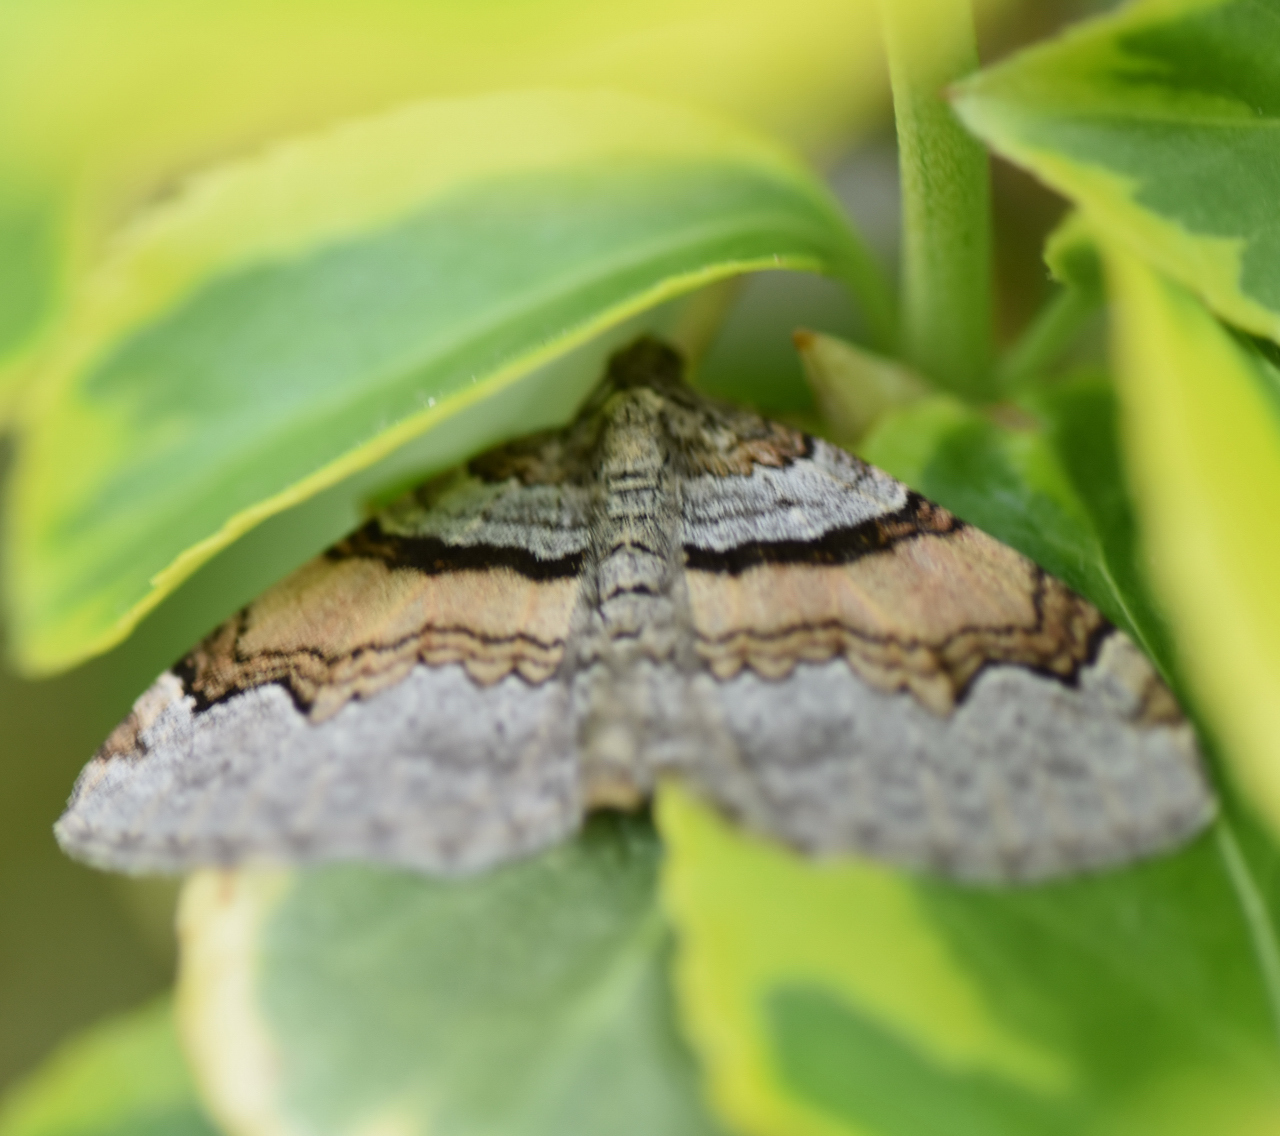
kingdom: Animalia
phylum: Arthropoda
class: Insecta
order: Lepidoptera
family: Geometridae
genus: Xanthorhoe
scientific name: Xanthorhoe labradorensis
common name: Labrador carpet
